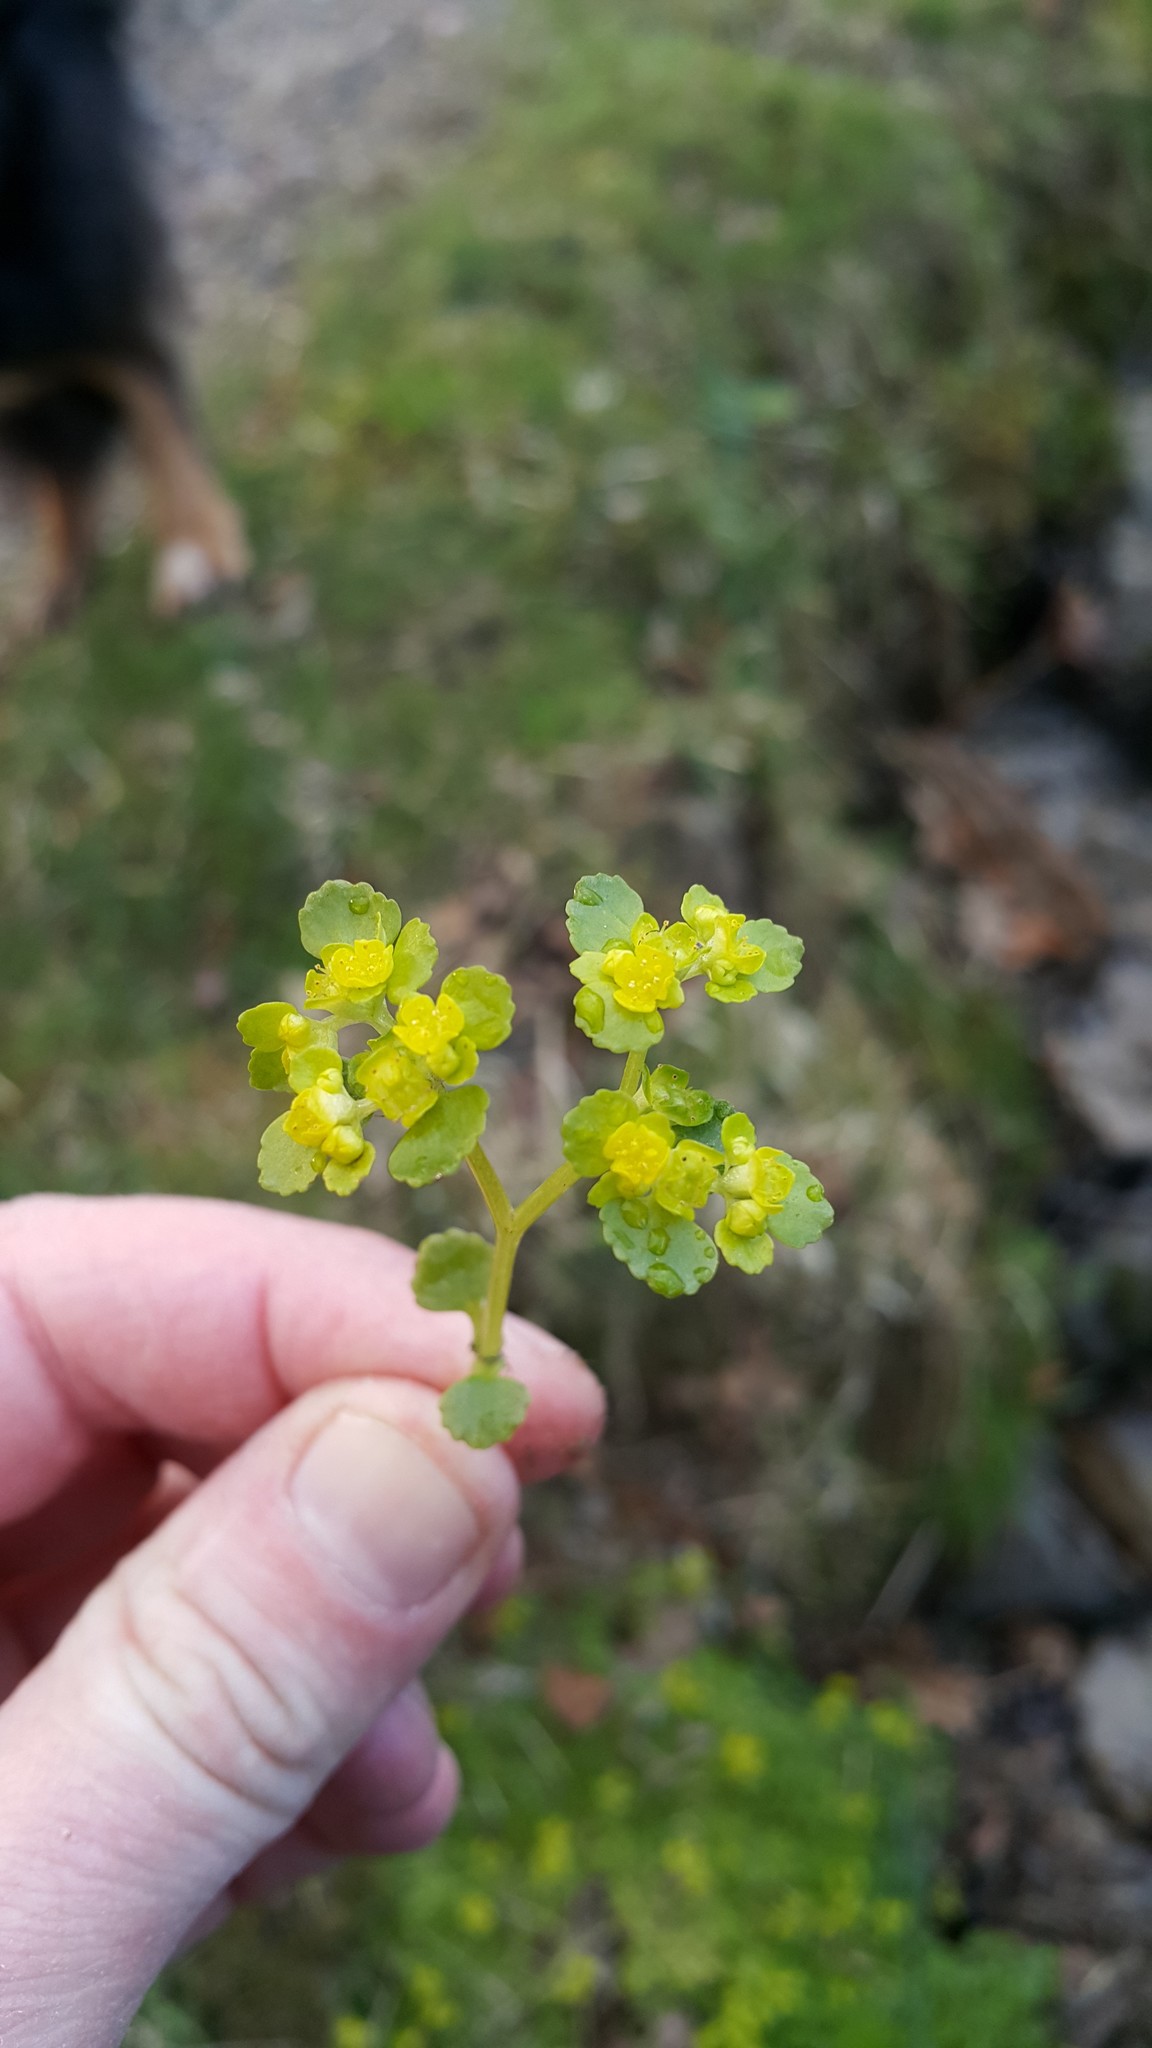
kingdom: Plantae
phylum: Tracheophyta
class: Magnoliopsida
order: Saxifragales
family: Saxifragaceae
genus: Chrysosplenium
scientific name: Chrysosplenium oppositifolium
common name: Opposite-leaved golden-saxifrage
